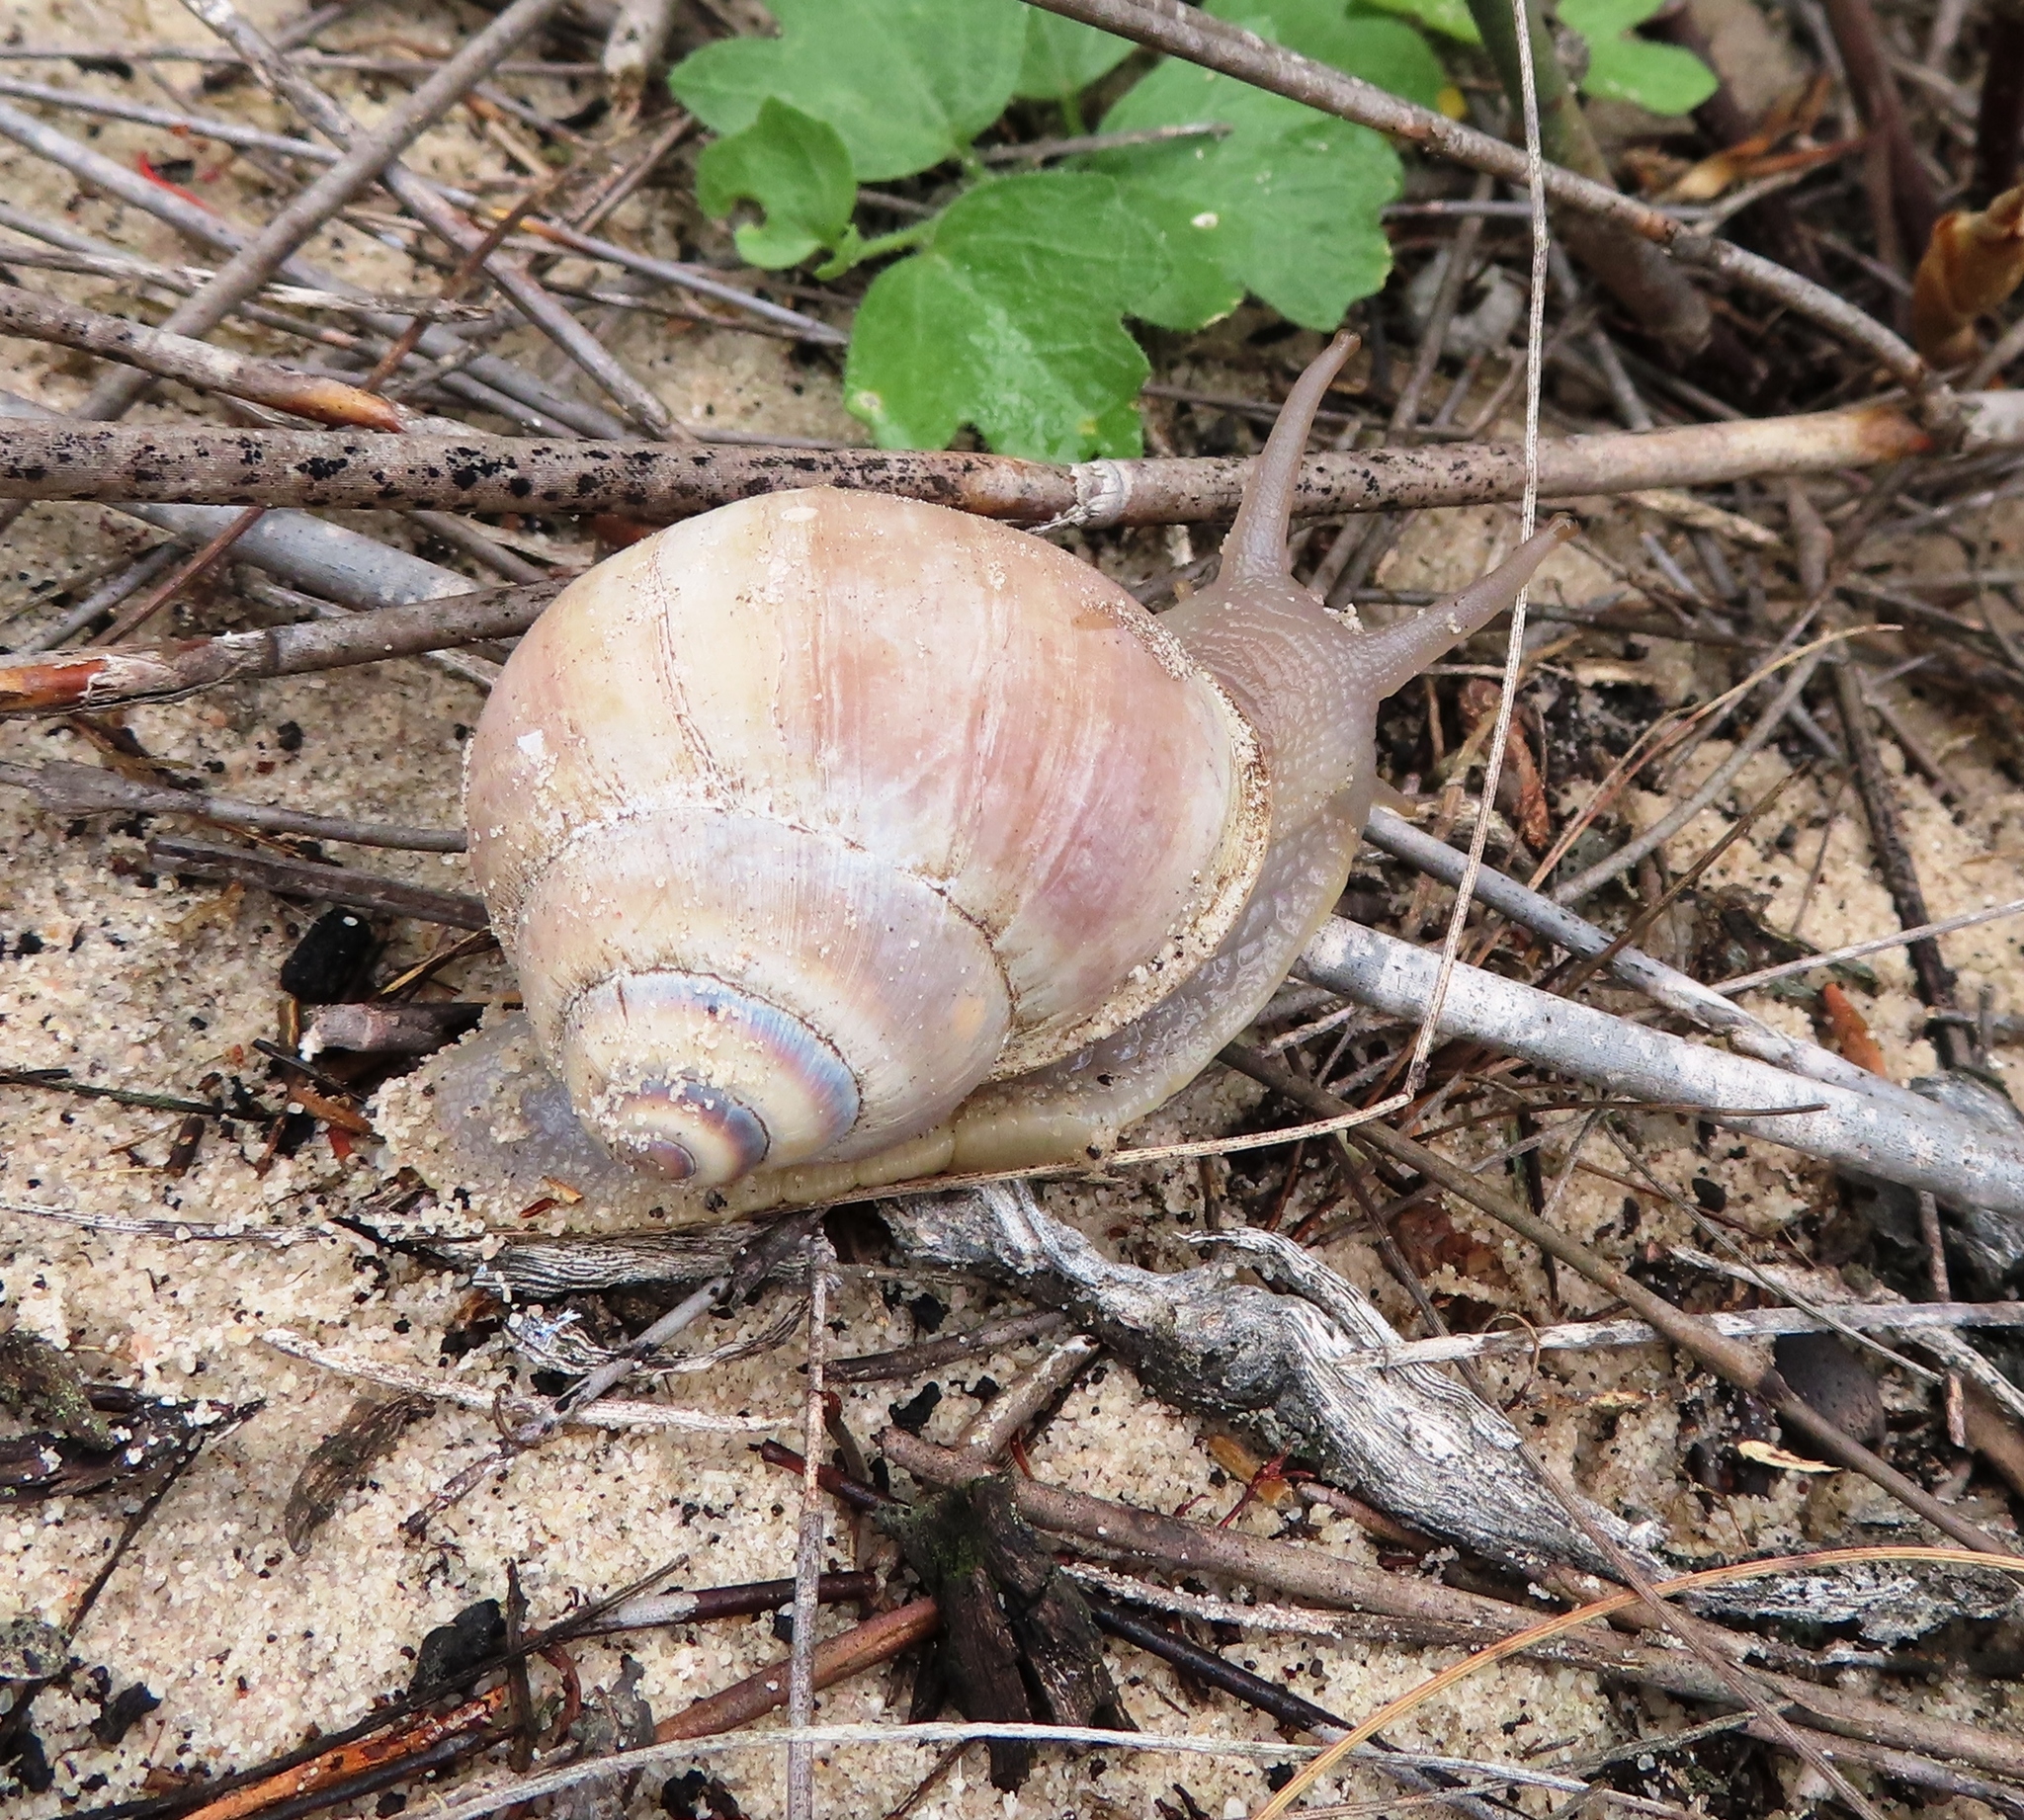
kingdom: Animalia
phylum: Mollusca
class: Gastropoda
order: Stylommatophora
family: Dorcasiidae
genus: Trigonephrus
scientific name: Trigonephrus globulus
